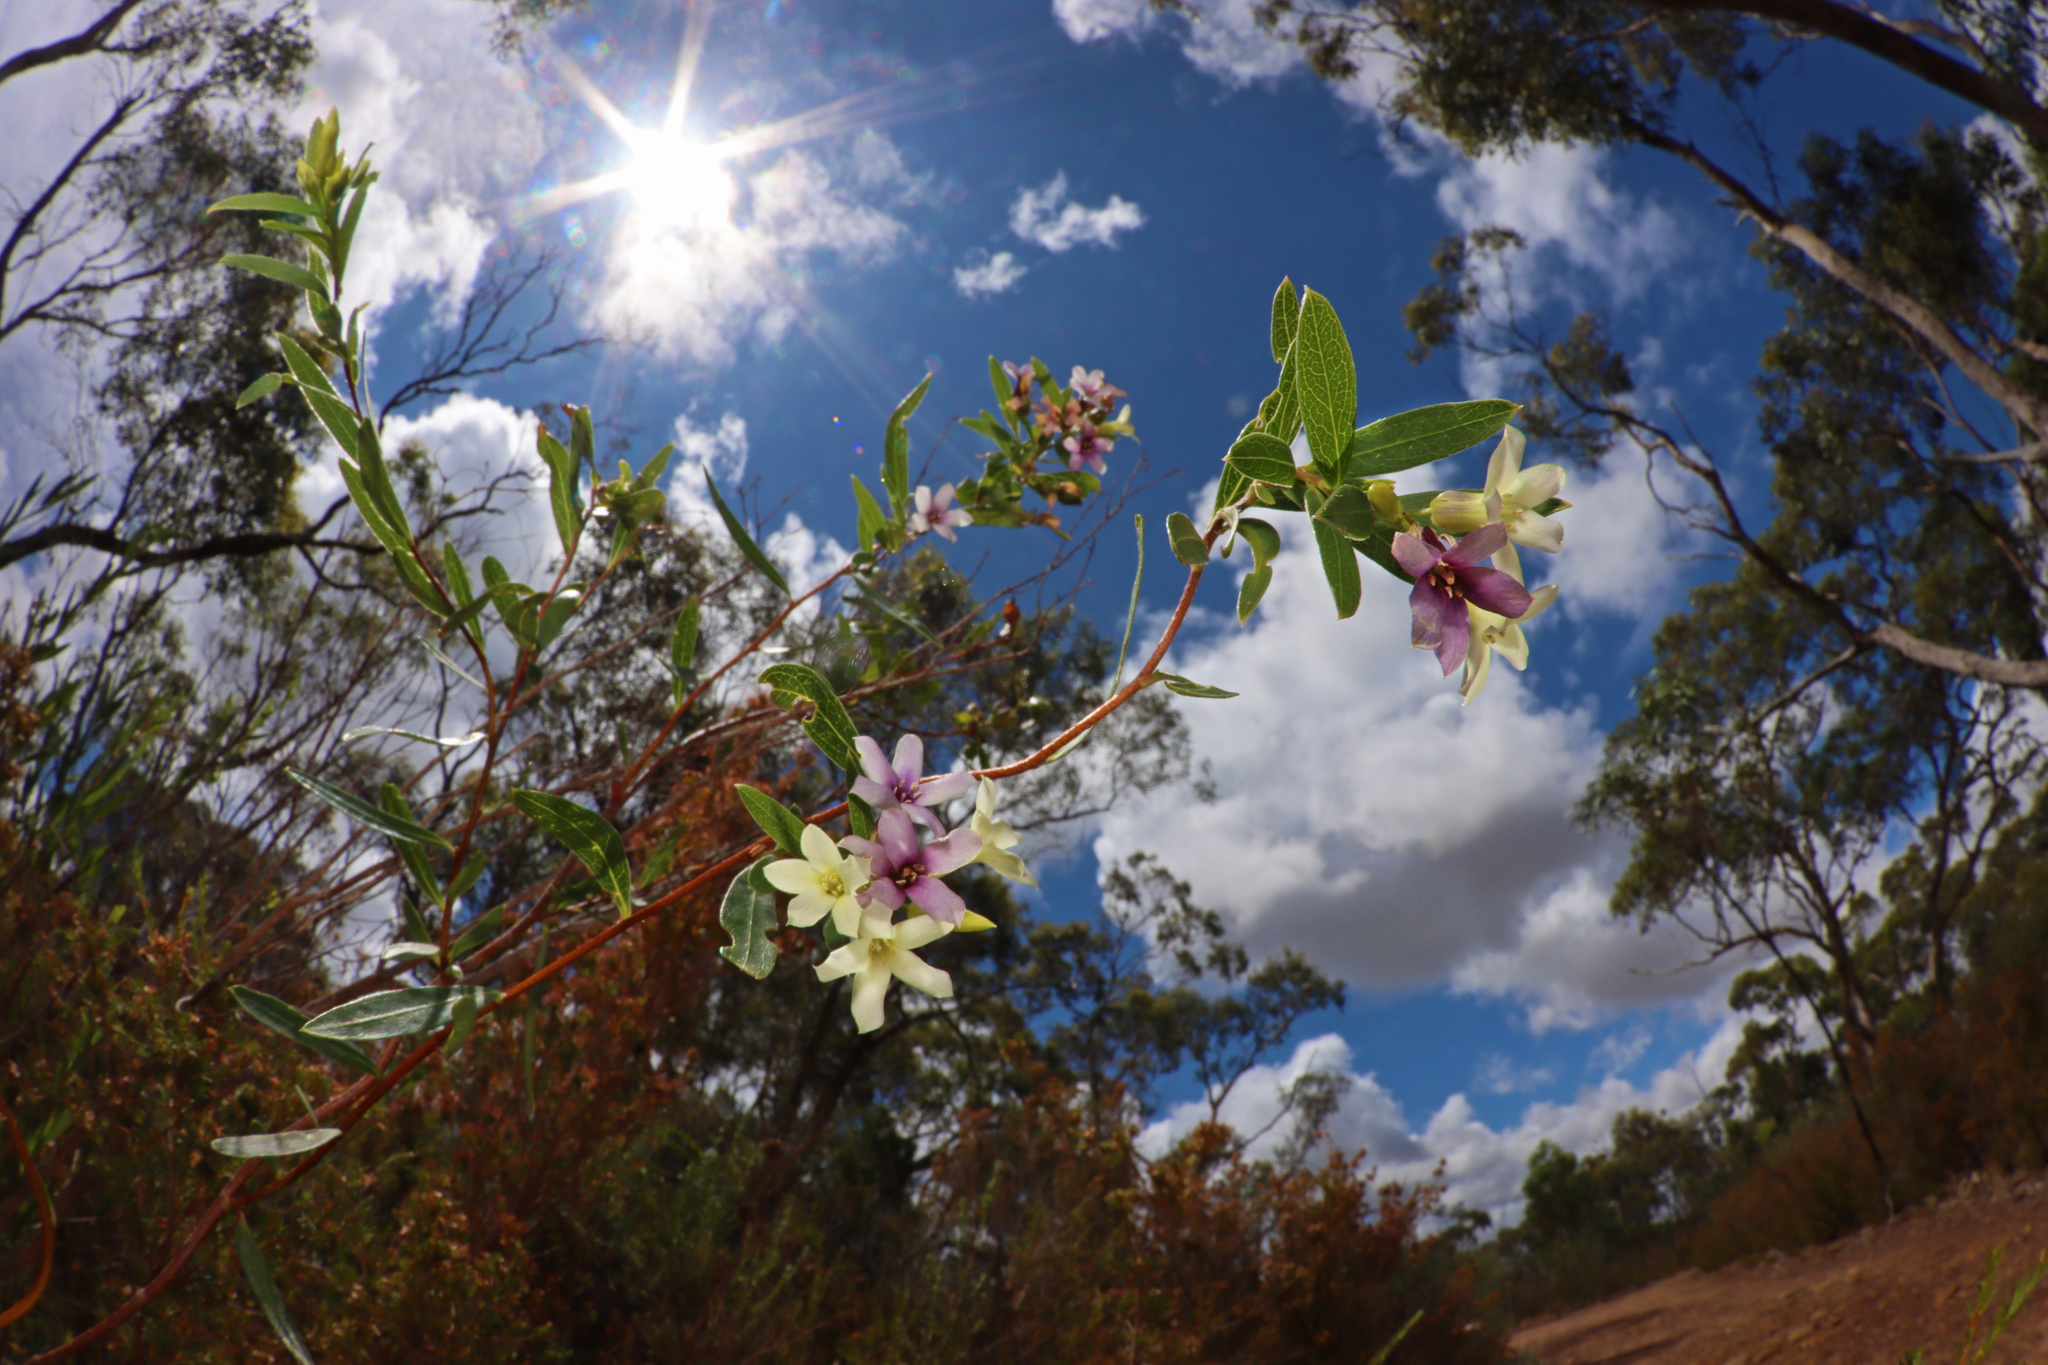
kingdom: Plantae
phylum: Tracheophyta
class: Magnoliopsida
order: Apiales
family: Pittosporaceae
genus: Billardiera
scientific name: Billardiera cymosa
